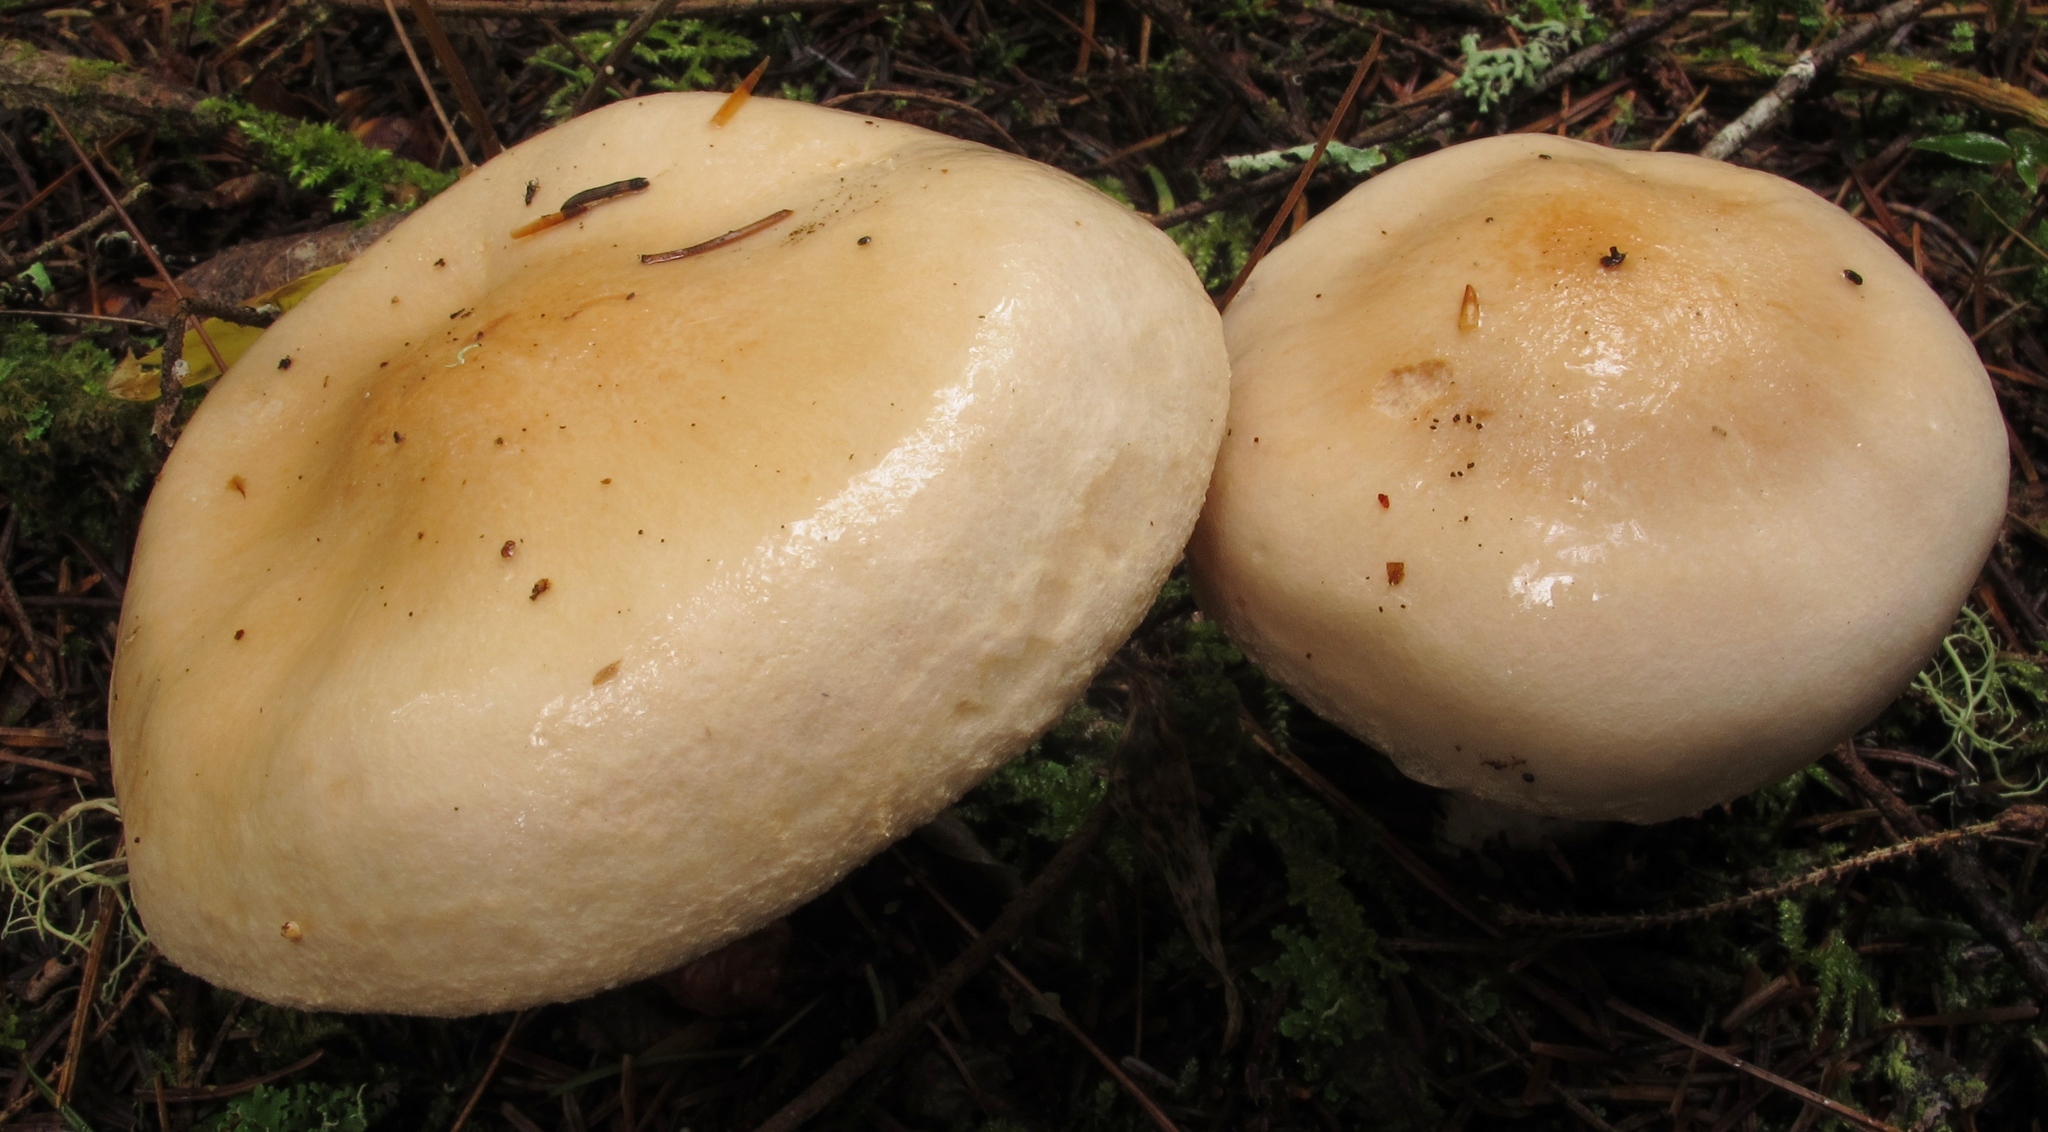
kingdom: Fungi
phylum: Basidiomycota
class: Agaricomycetes
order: Agaricales
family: Hygrophoraceae
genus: Hygrophorus
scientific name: Hygrophorus pudorinus
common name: Rosy woodwax
